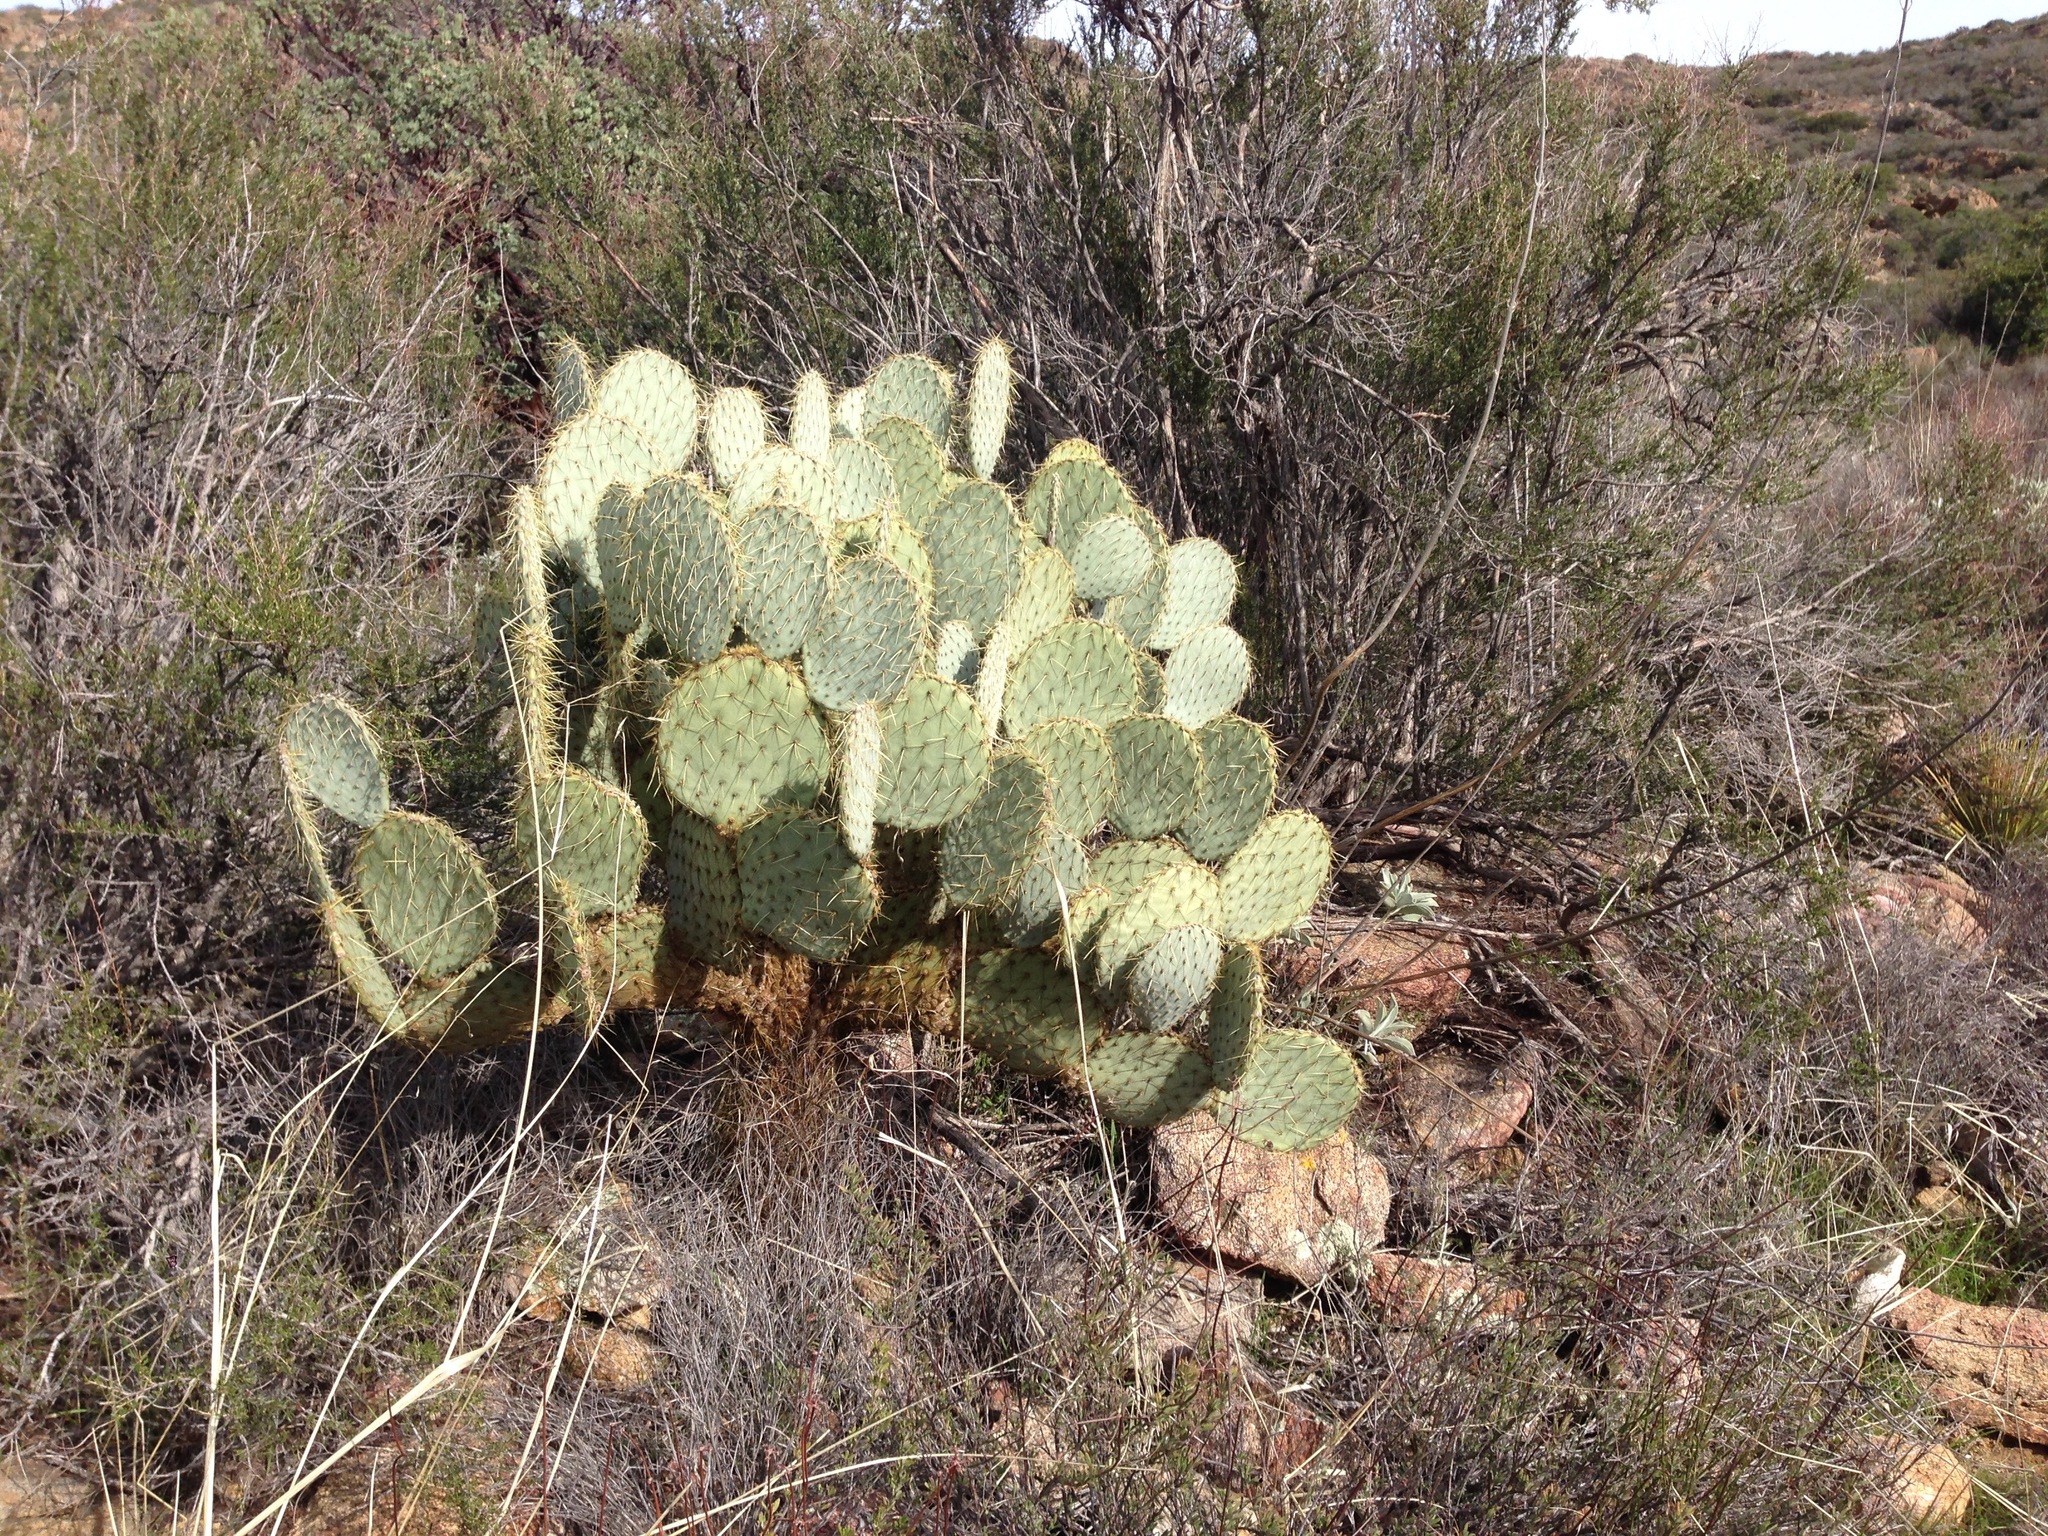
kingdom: Plantae
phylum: Tracheophyta
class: Magnoliopsida
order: Caryophyllales
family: Cactaceae
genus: Opuntia
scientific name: Opuntia chlorotica
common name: Dollar-joint prickly-pear
